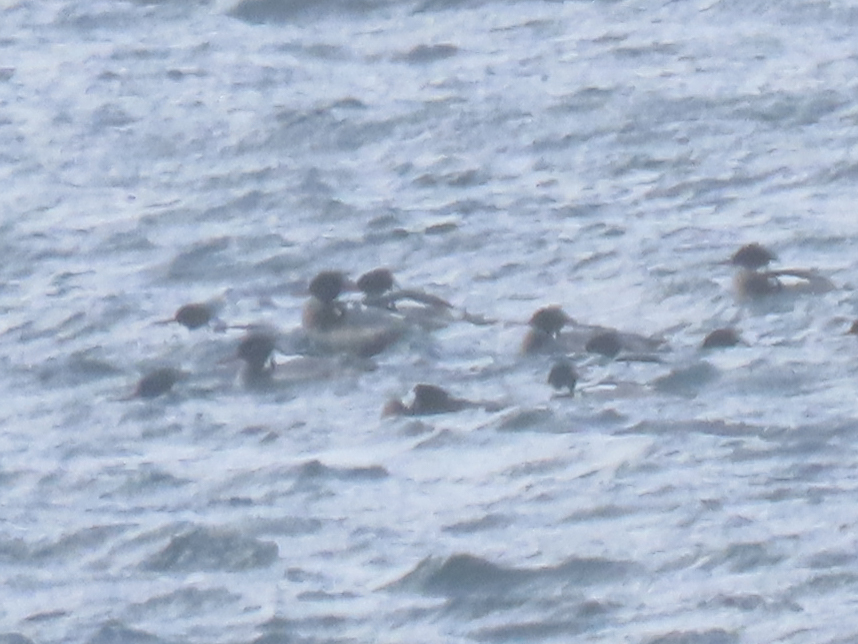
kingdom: Animalia
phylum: Chordata
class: Aves
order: Anseriformes
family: Anatidae
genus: Mergus
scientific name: Mergus serrator
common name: Red-breasted merganser
